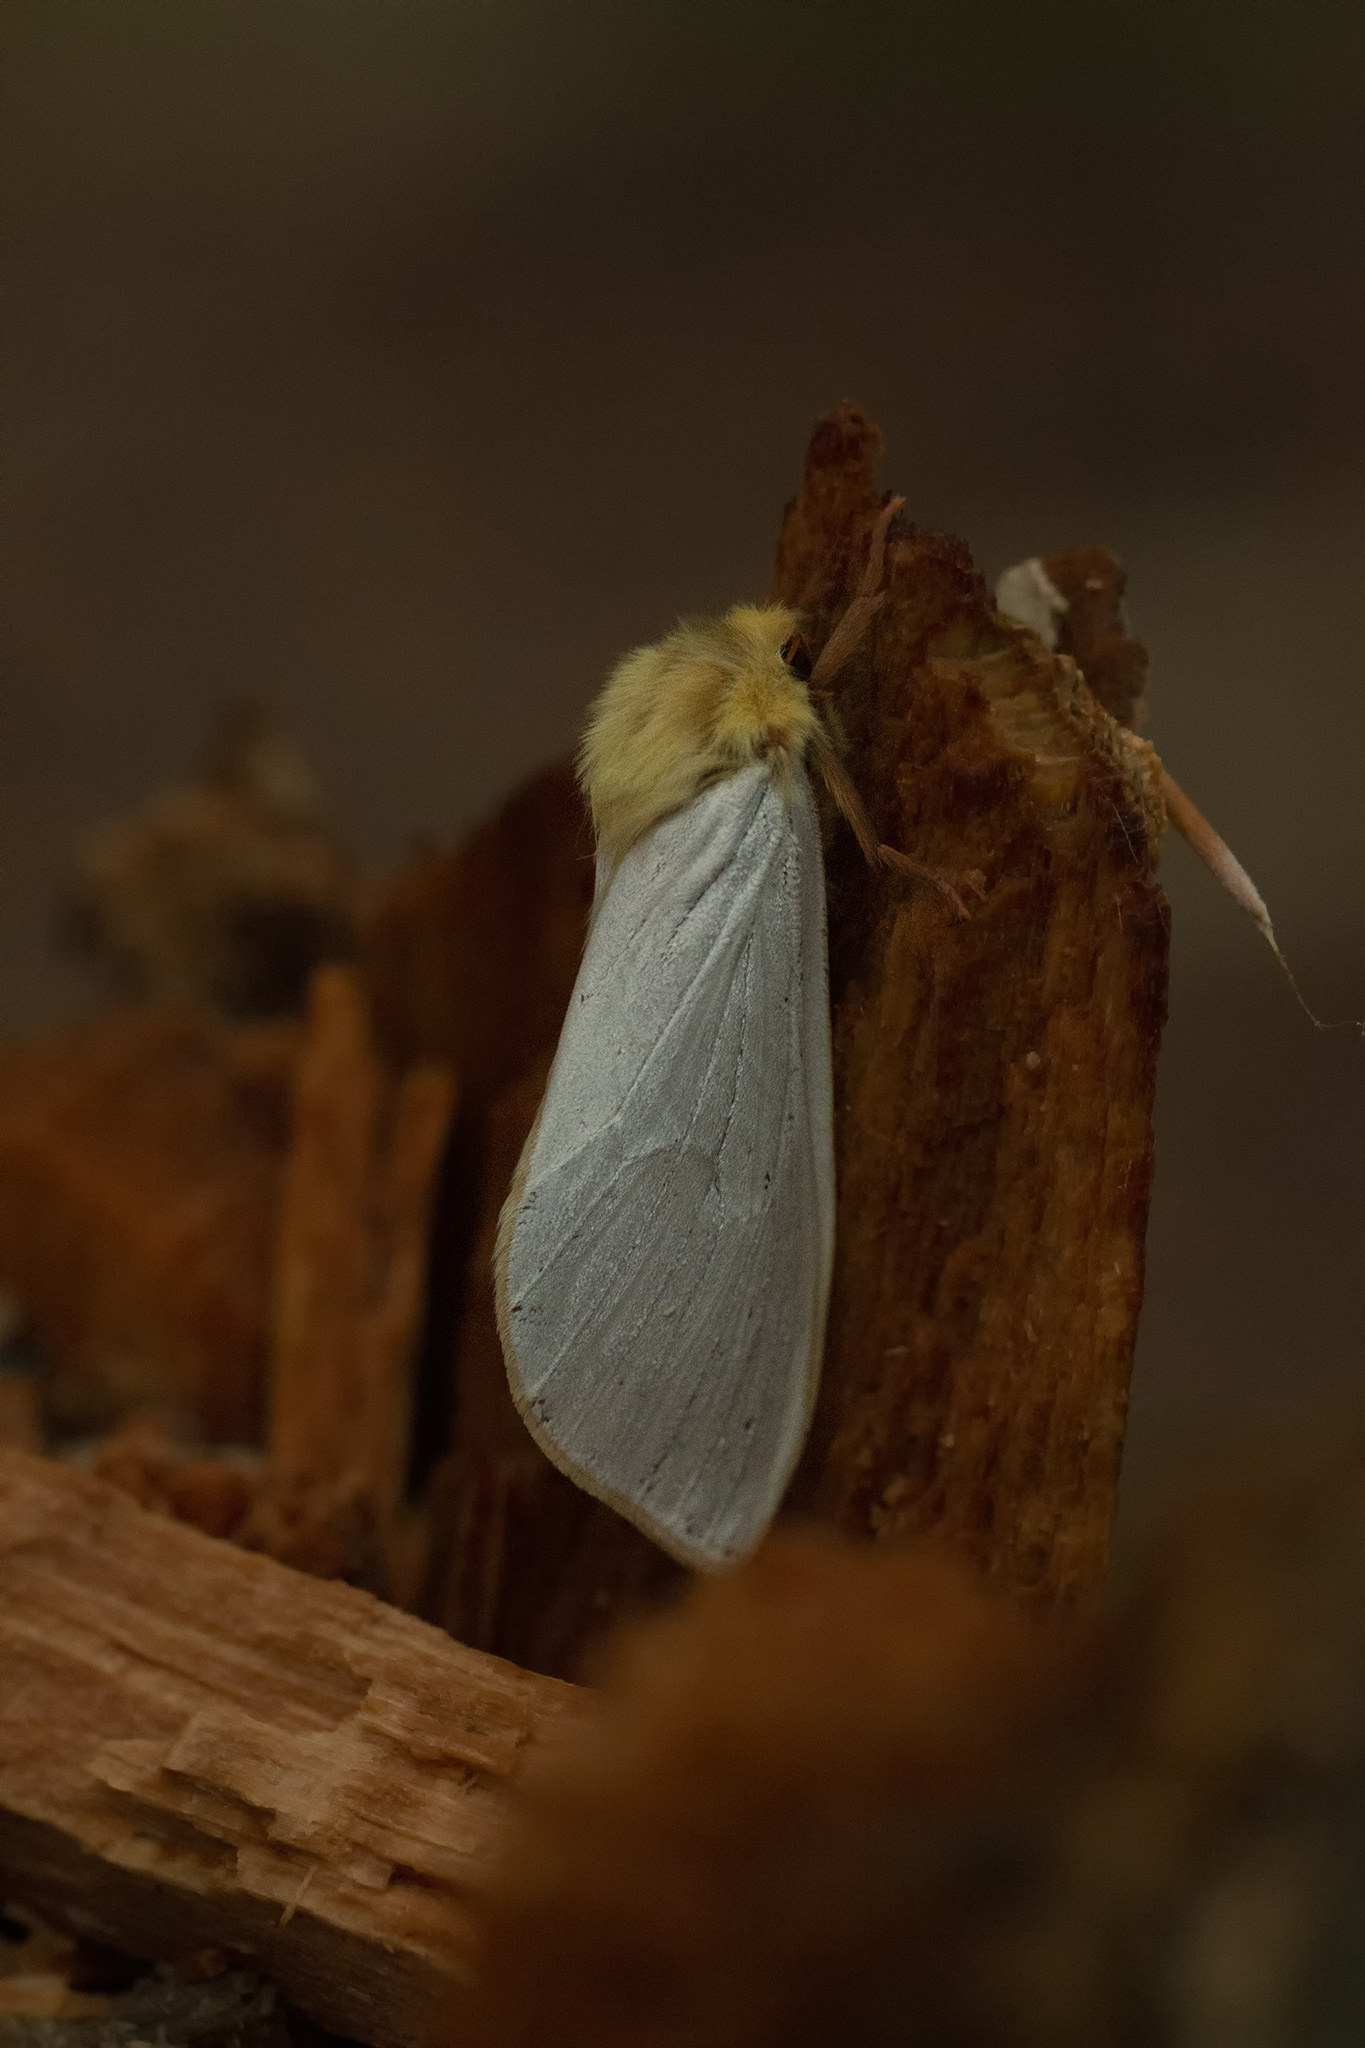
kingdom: Animalia
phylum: Arthropoda
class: Insecta
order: Lepidoptera
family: Hepialidae
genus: Hepialus
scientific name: Hepialus humuli
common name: Ghost moth
